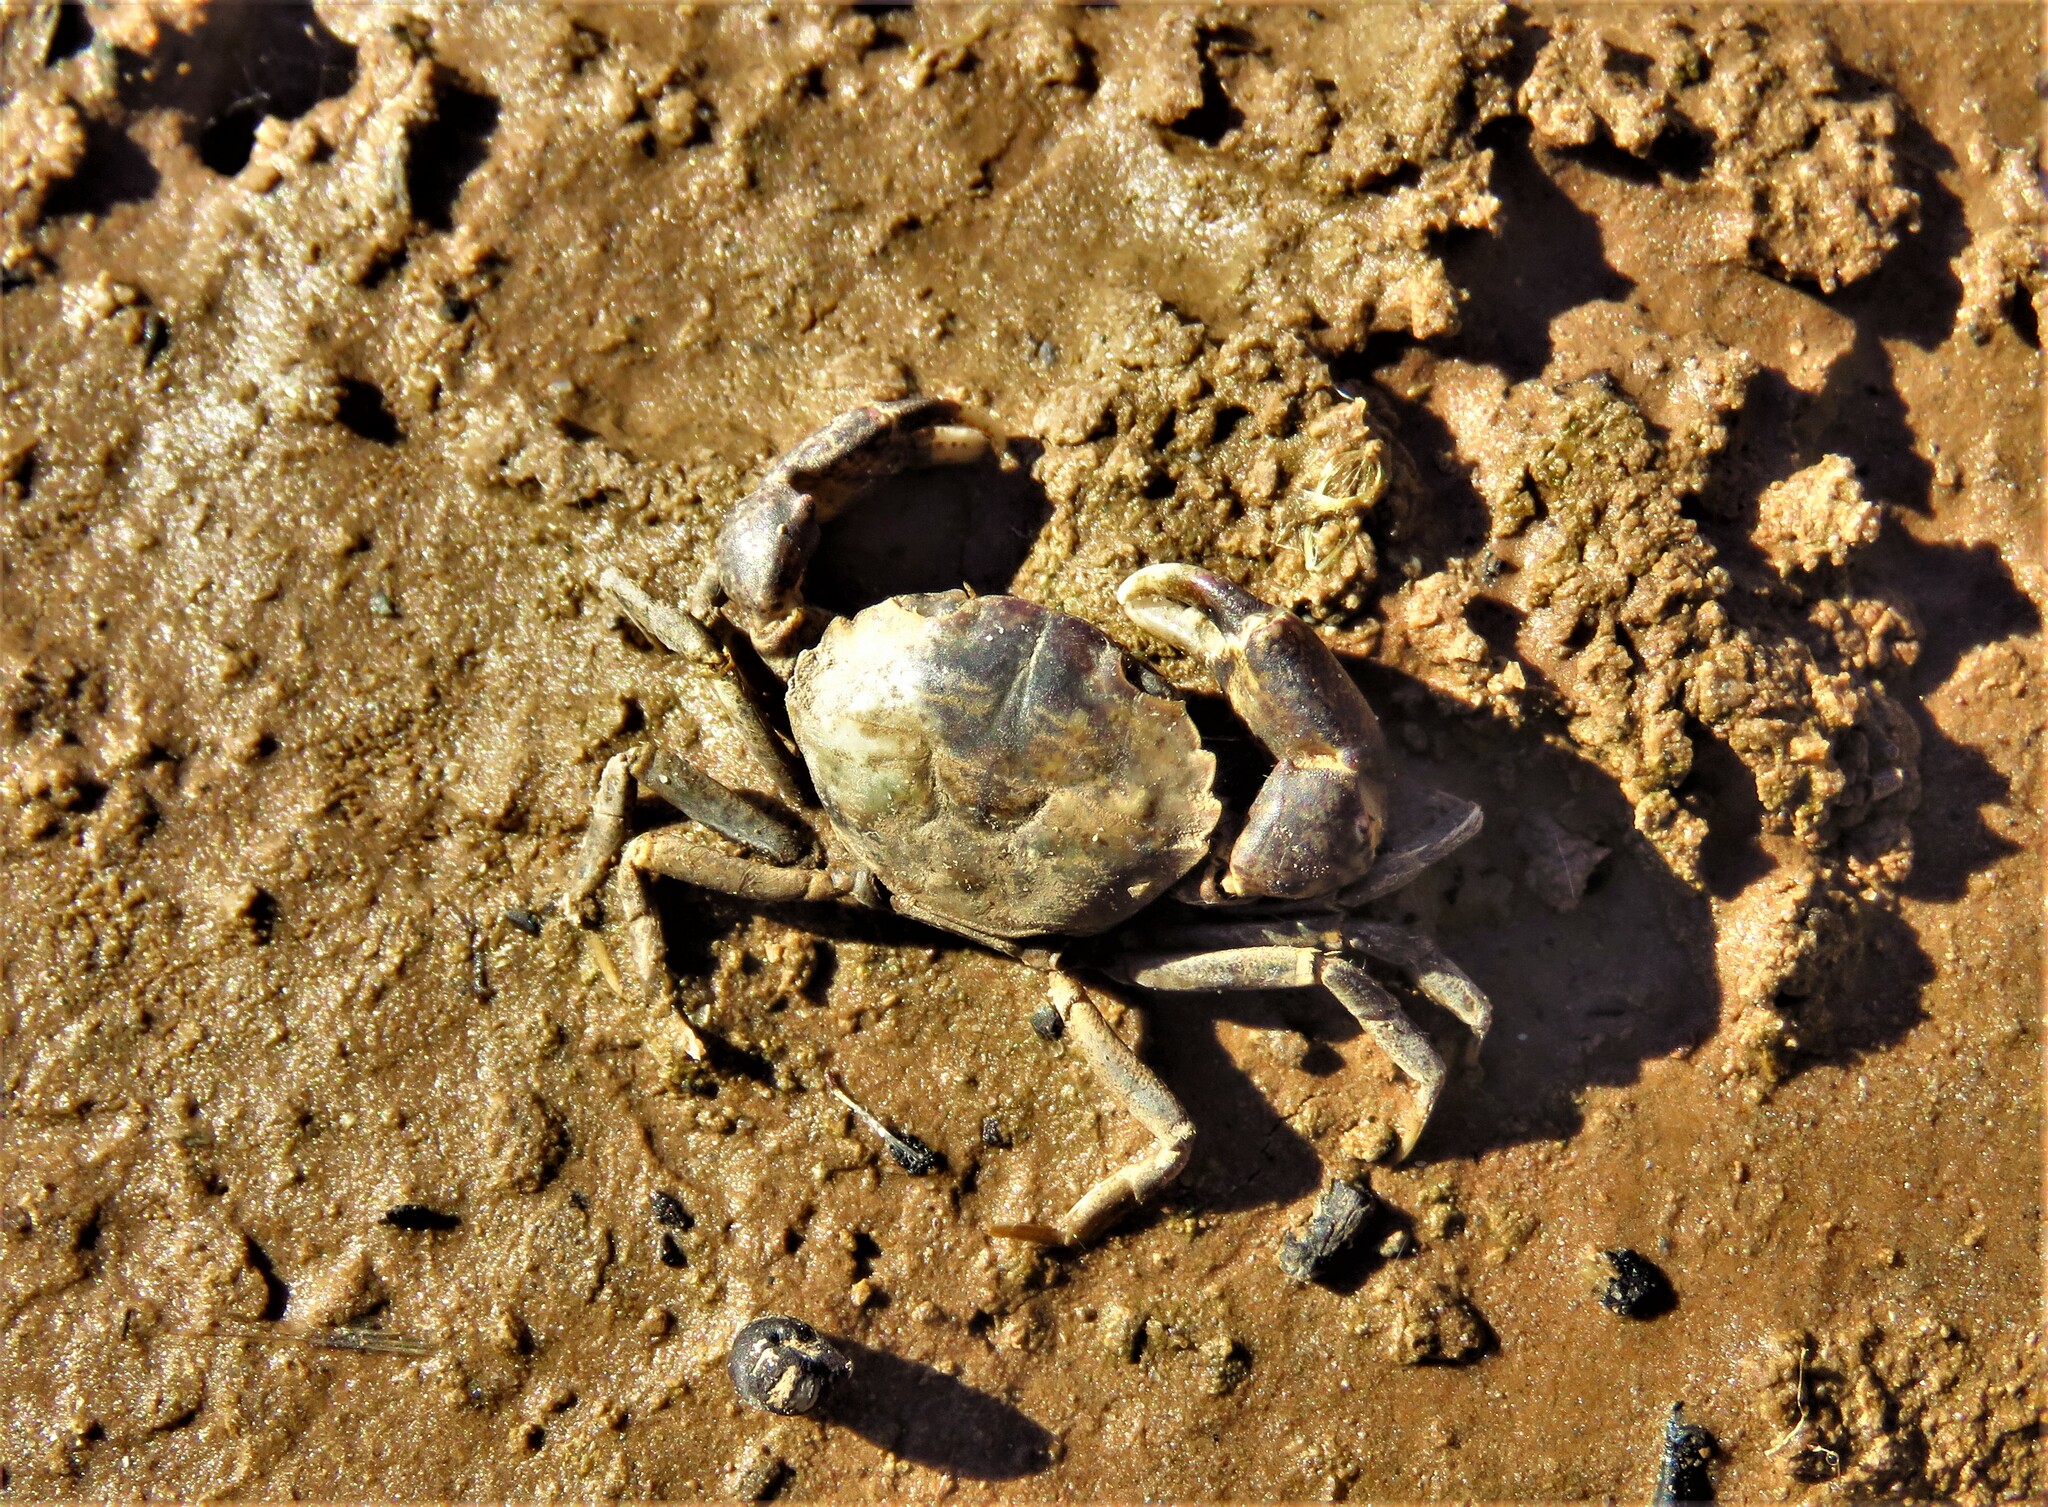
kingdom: Animalia
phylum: Arthropoda
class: Malacostraca
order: Decapoda
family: Panopeidae
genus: Rhithropanopeus
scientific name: Rhithropanopeus harrisii
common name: Dwarf crab
